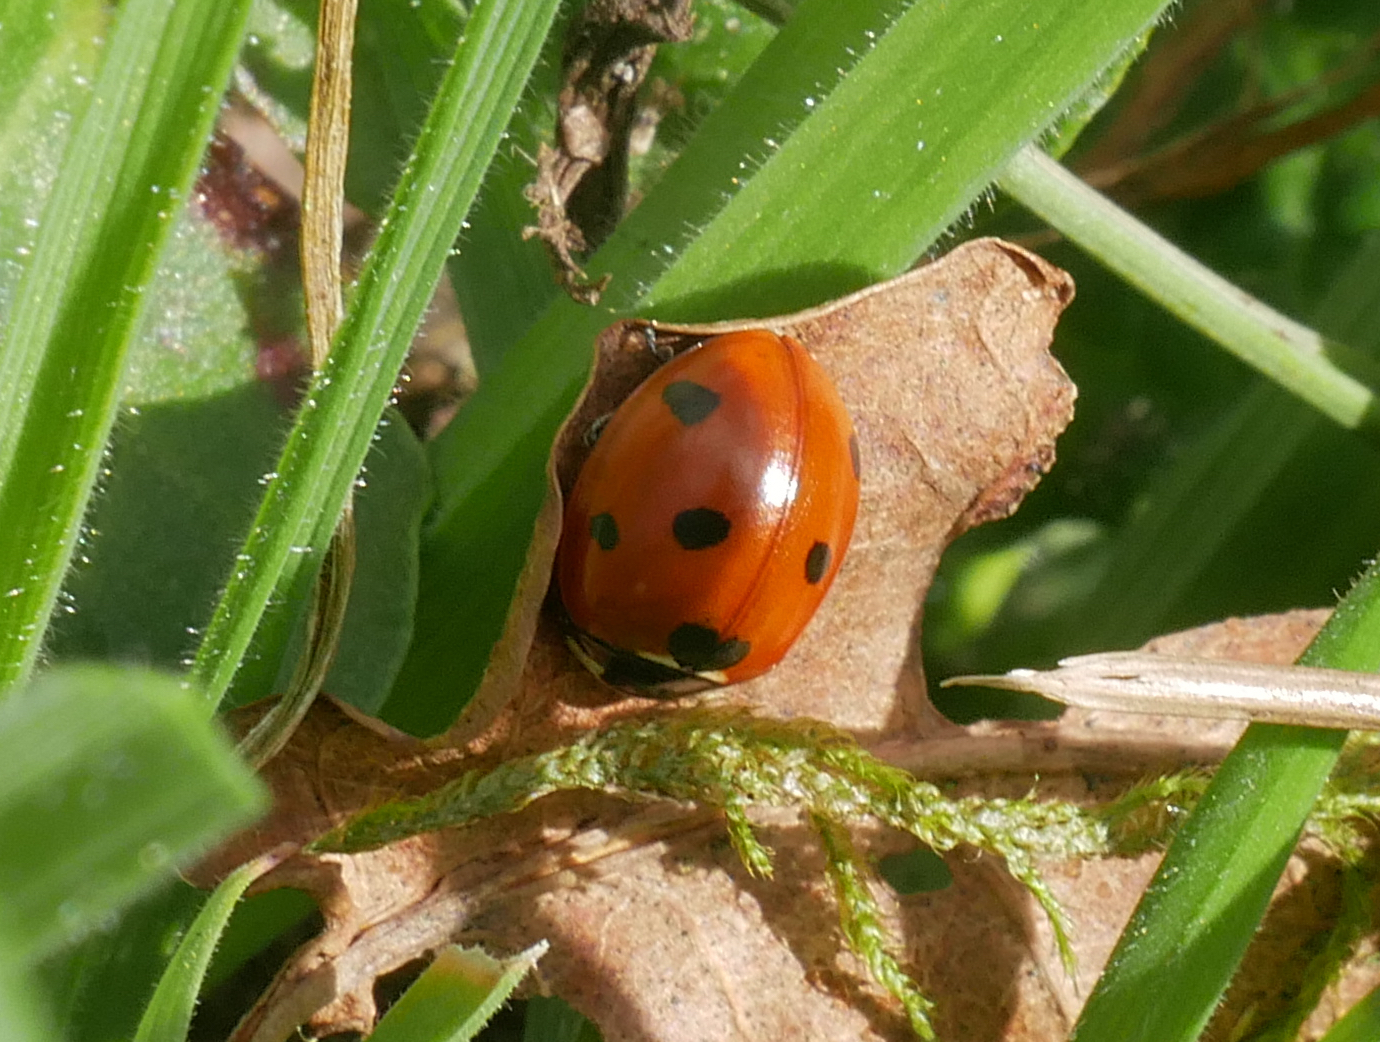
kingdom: Animalia
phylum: Arthropoda
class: Insecta
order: Coleoptera
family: Coccinellidae
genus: Coccinella
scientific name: Coccinella septempunctata
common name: Sevenspotted lady beetle
